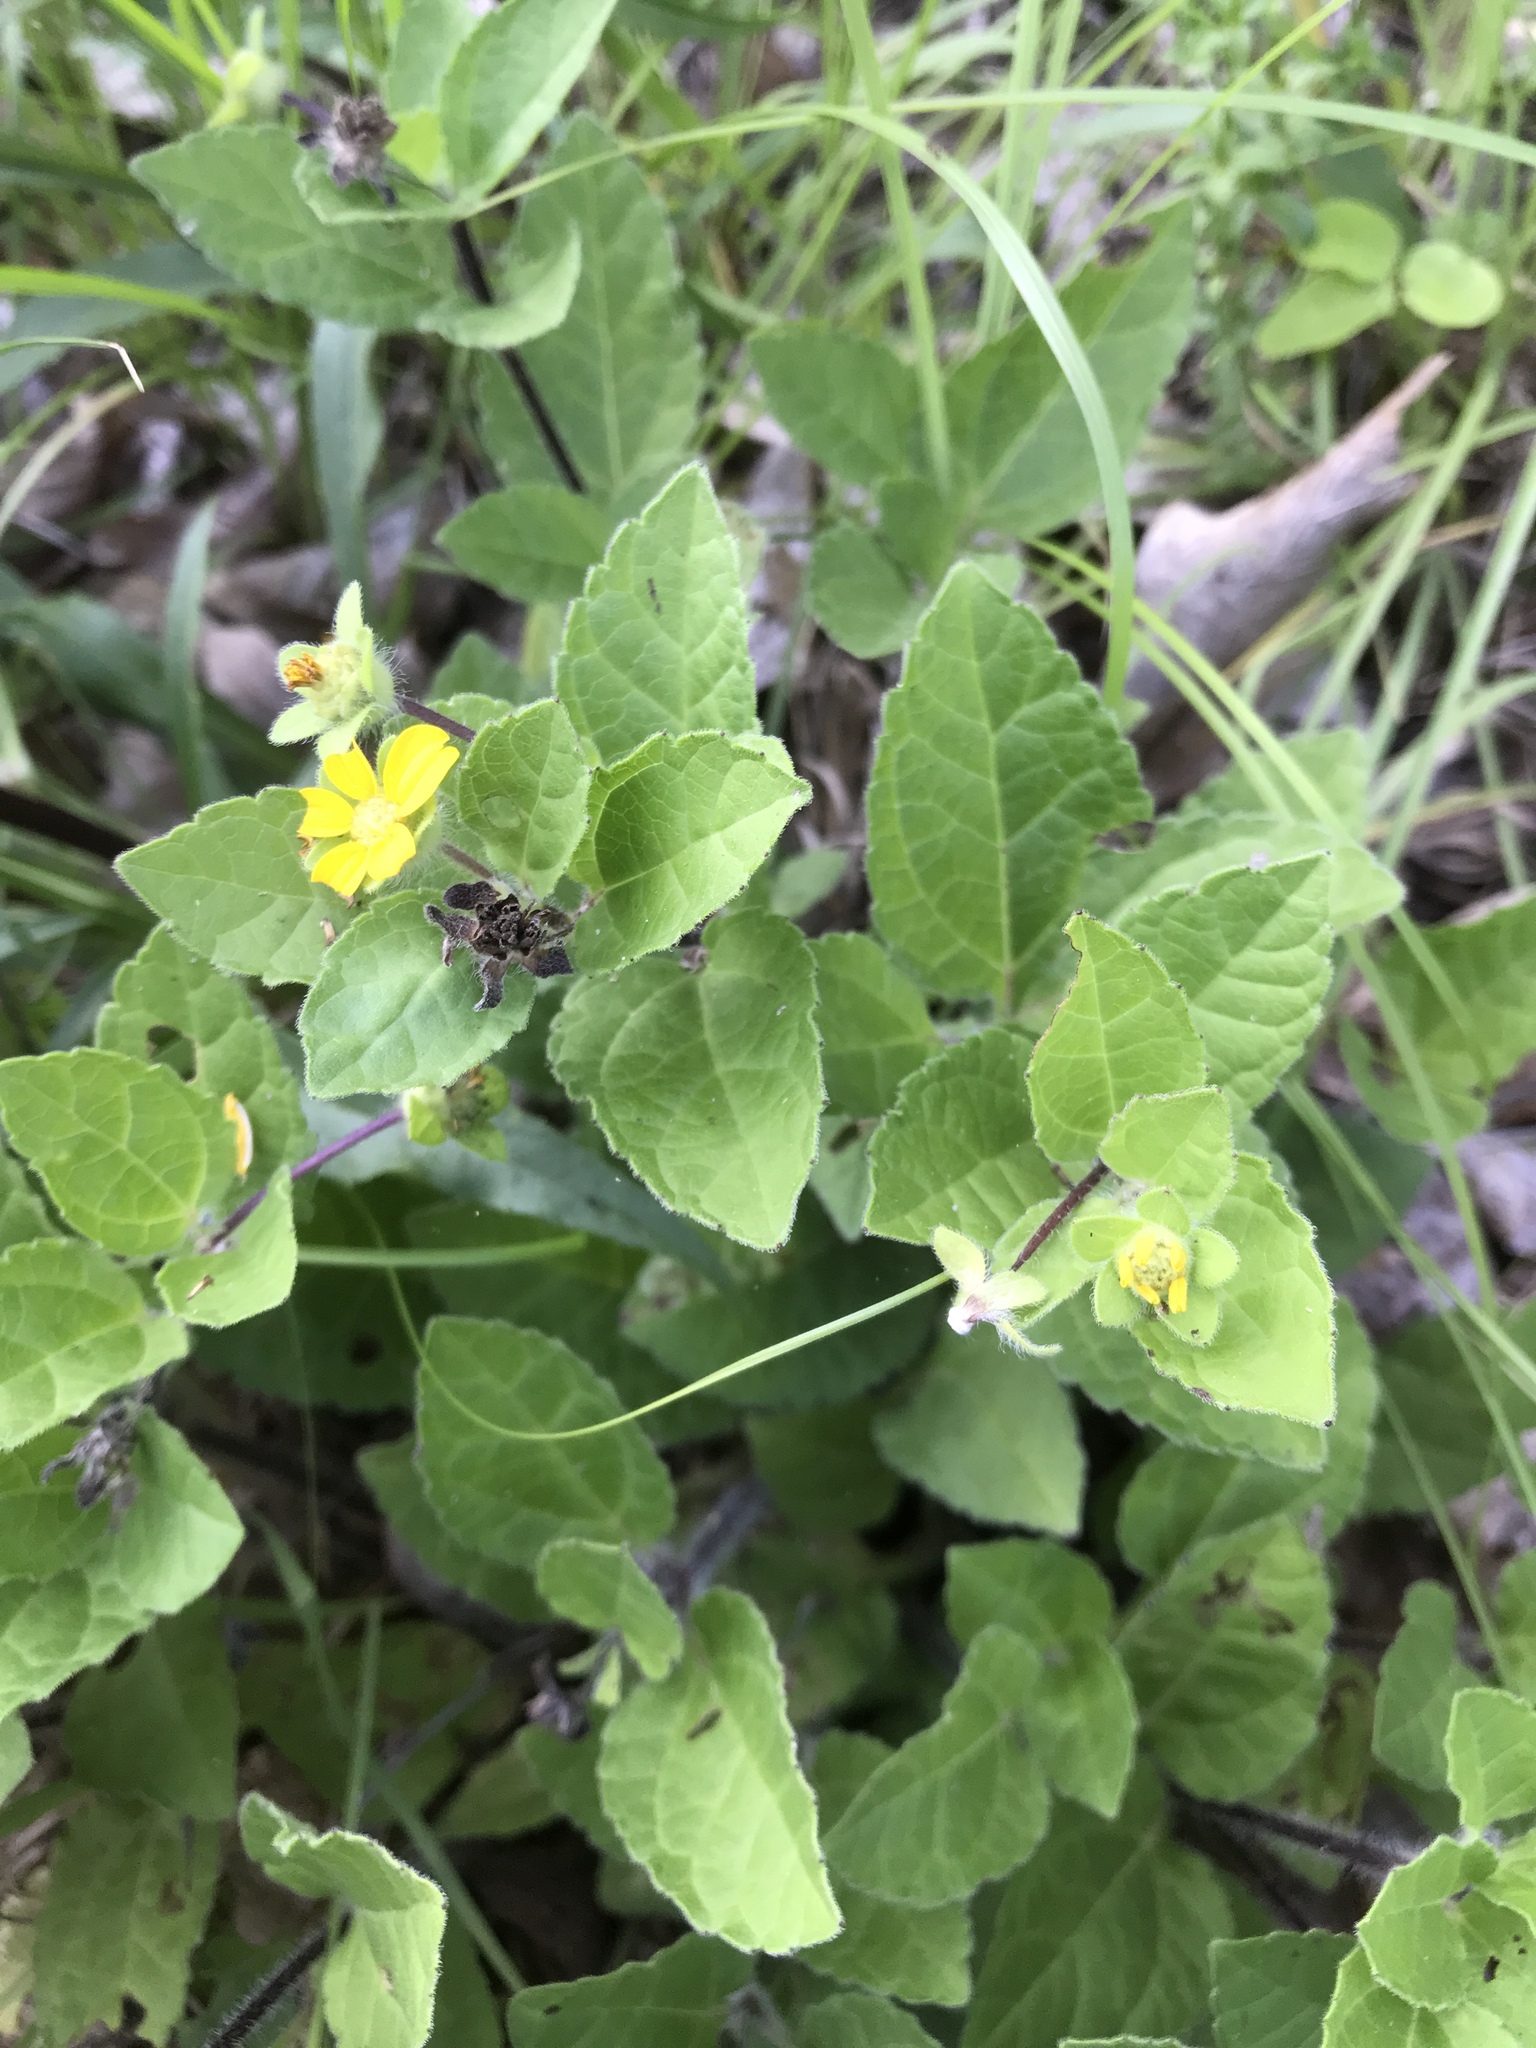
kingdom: Plantae
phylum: Tracheophyta
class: Magnoliopsida
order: Asterales
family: Asteraceae
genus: Chrysogonum
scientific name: Chrysogonum virginianum
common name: Golden-knee
